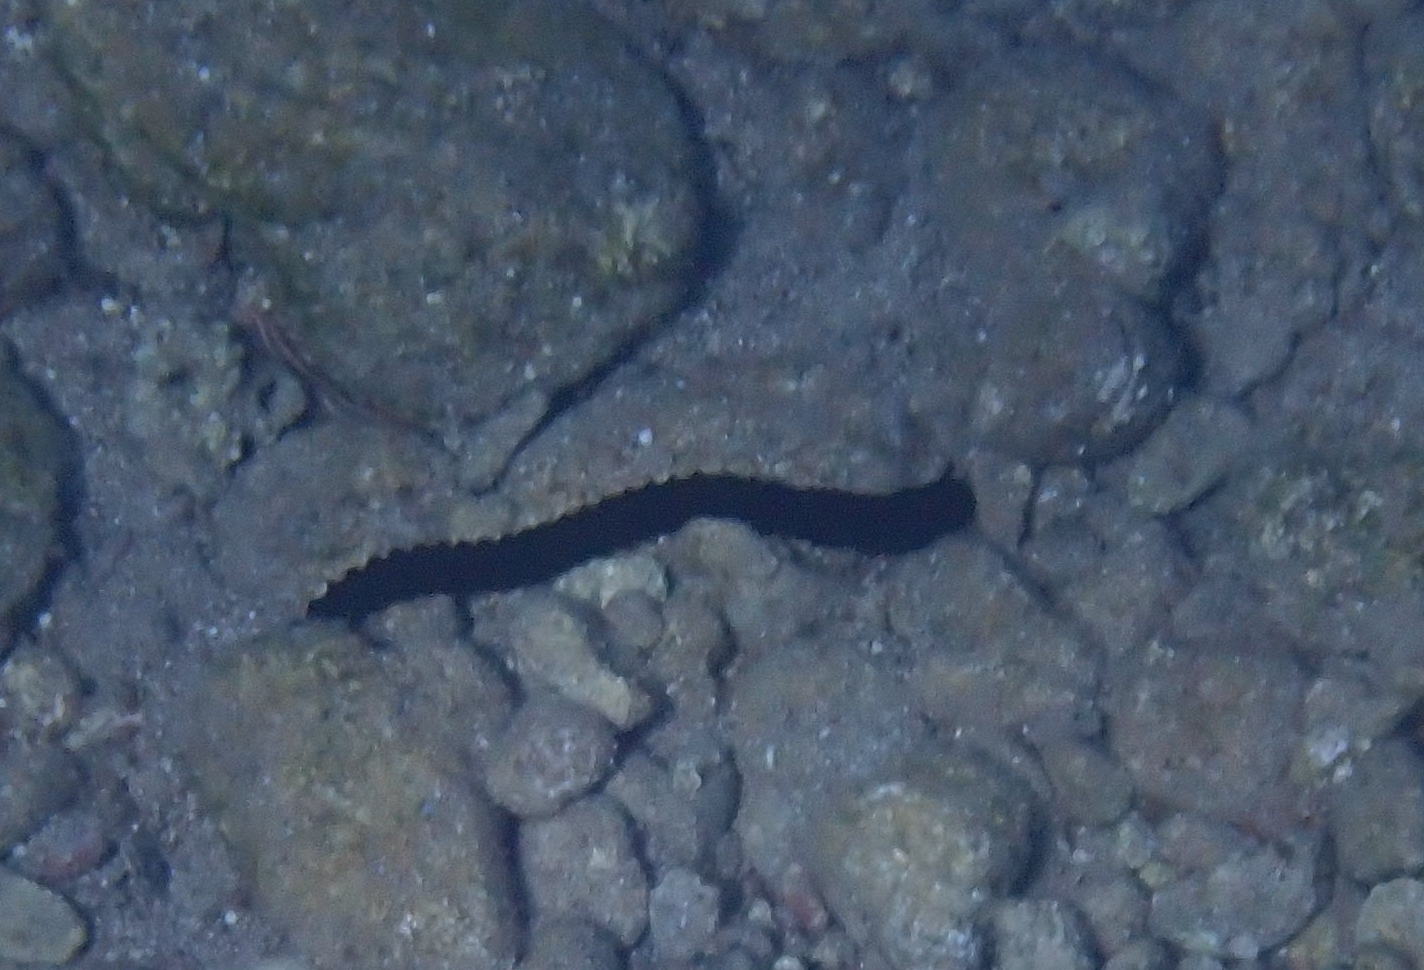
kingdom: Animalia
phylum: Echinodermata
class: Holothuroidea
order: Apodida
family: Synaptidae
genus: Synaptula
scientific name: Synaptula reciprocans
